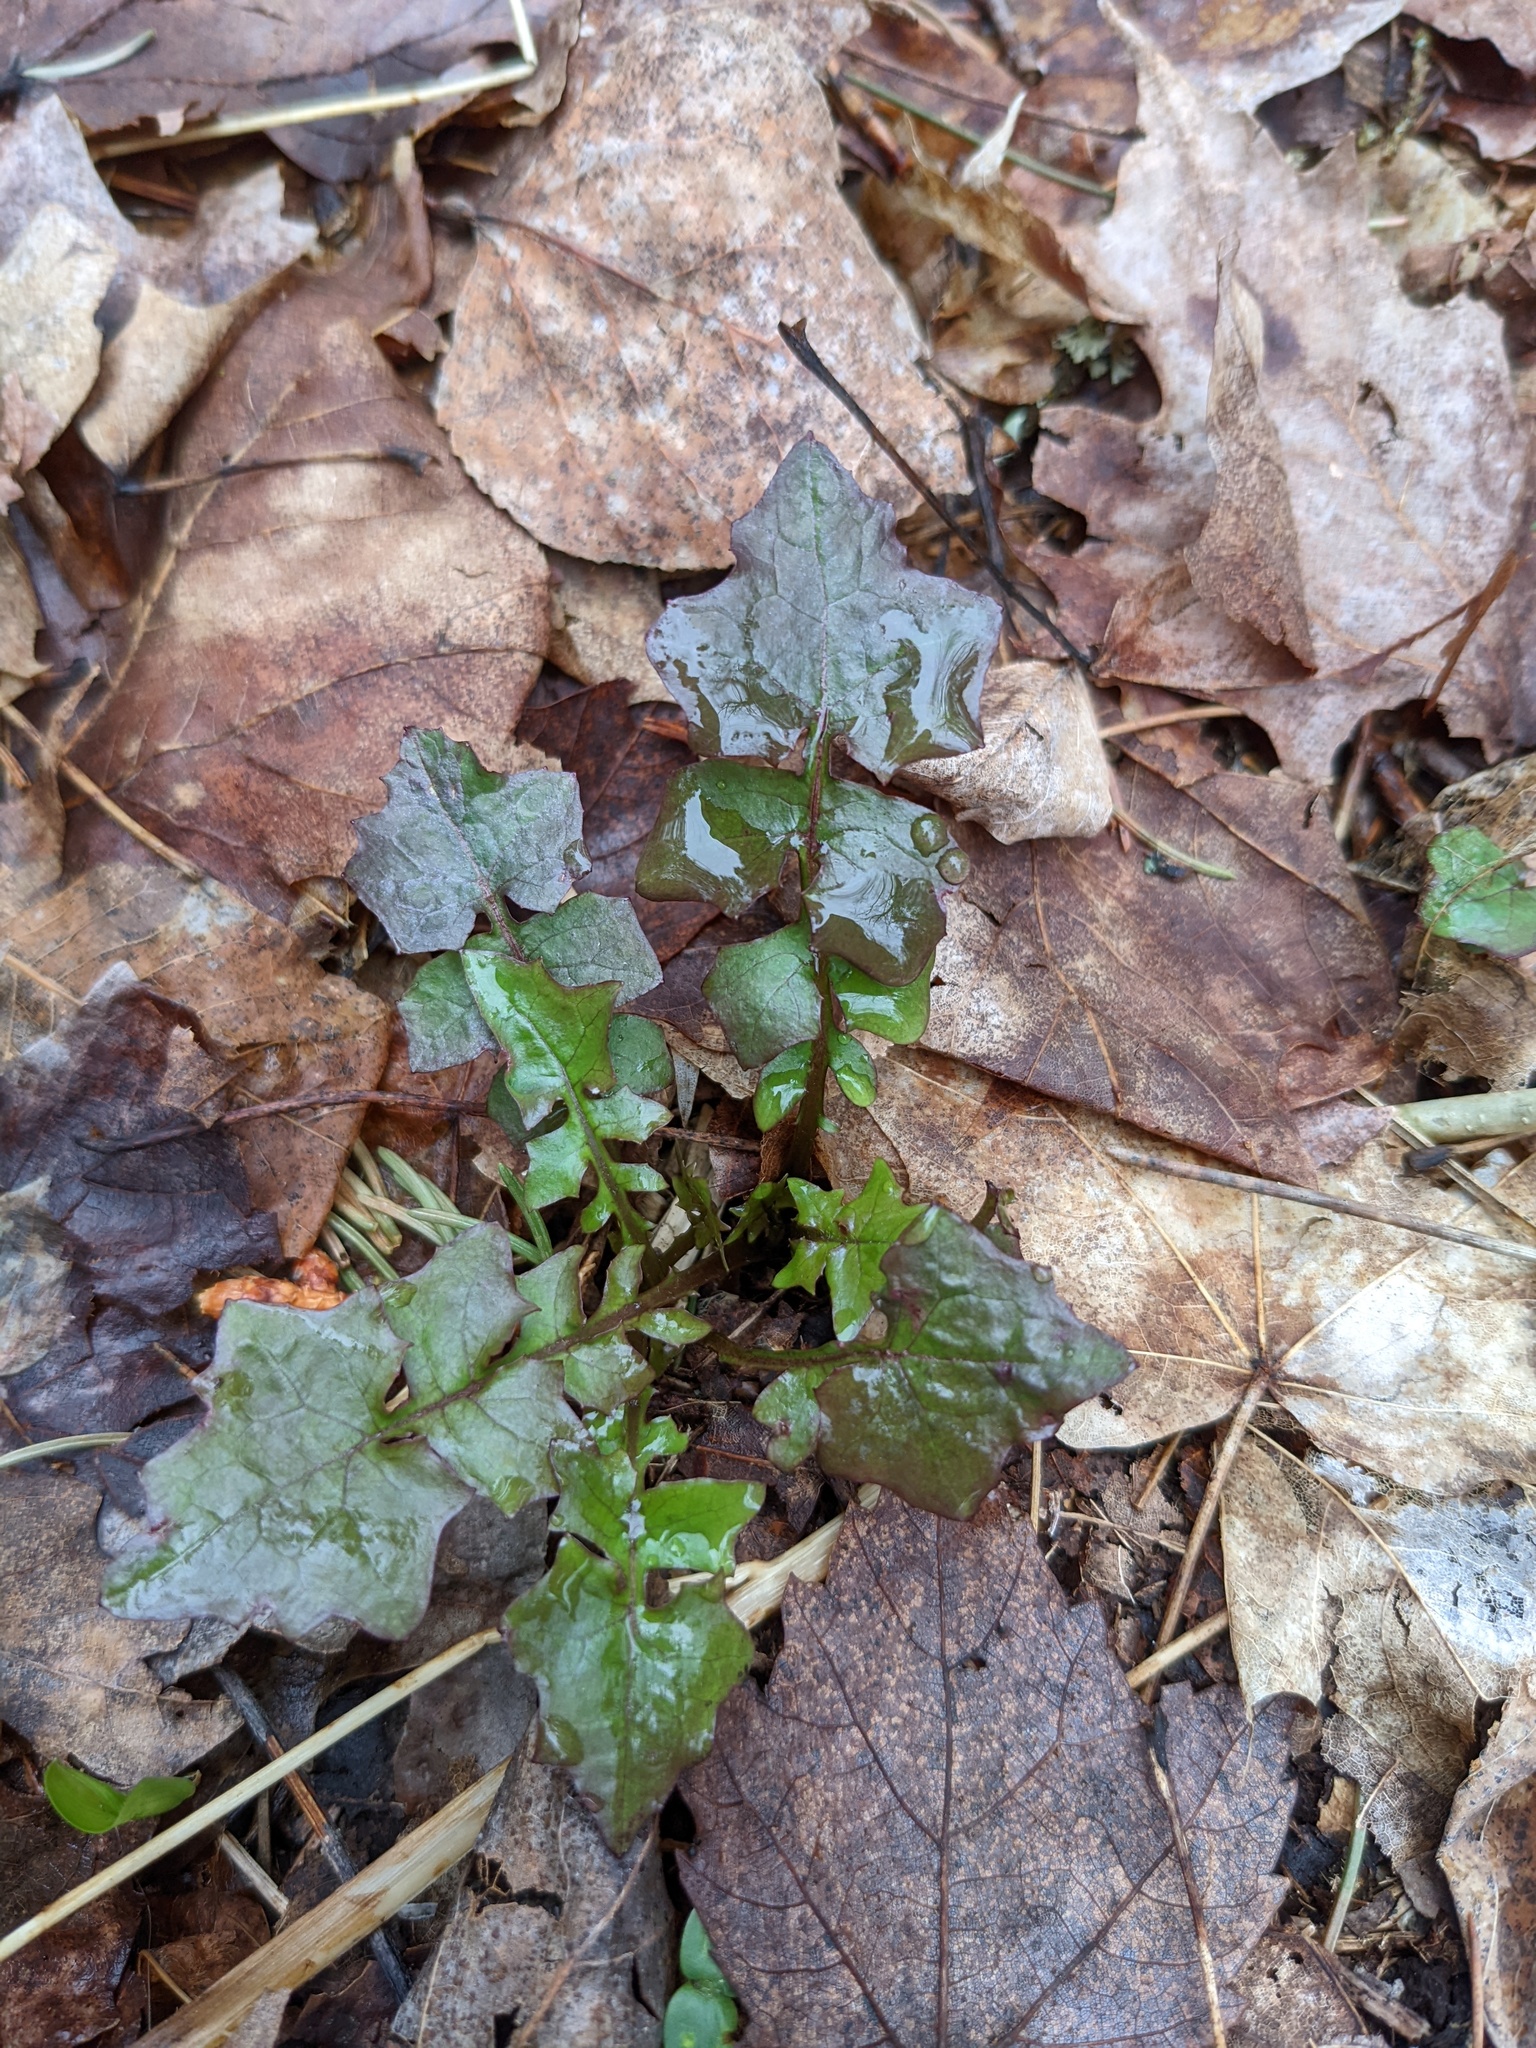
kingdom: Plantae
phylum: Tracheophyta
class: Magnoliopsida
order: Asterales
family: Asteraceae
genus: Mycelis
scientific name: Mycelis muralis
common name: Wall lettuce
